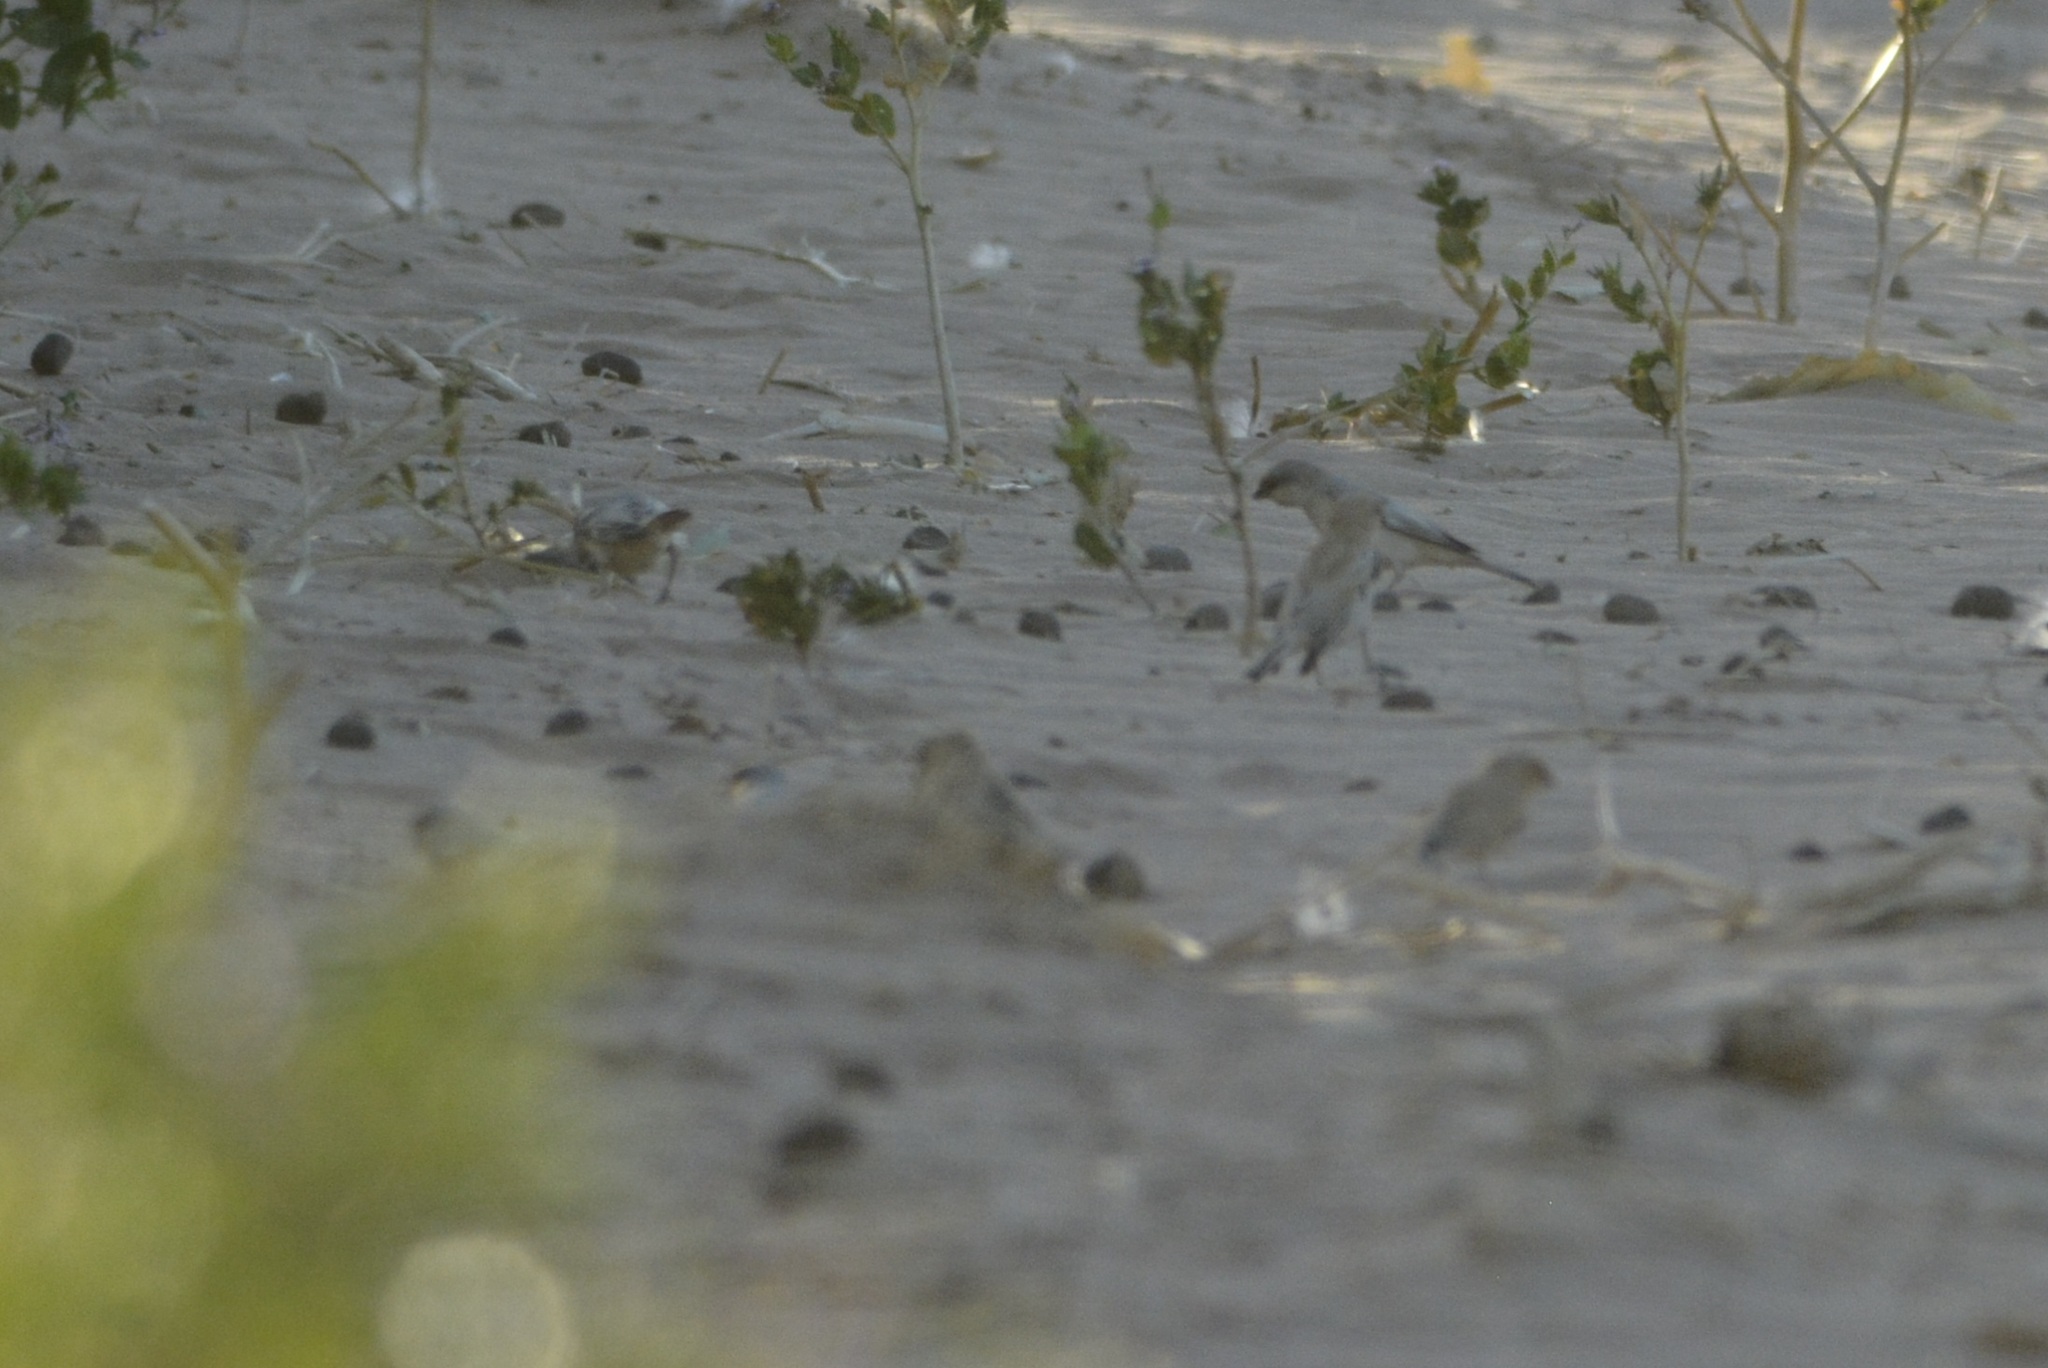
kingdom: Animalia
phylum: Chordata
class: Aves
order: Passeriformes
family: Passeridae
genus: Passer
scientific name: Passer simplex
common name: Desert sparrow
